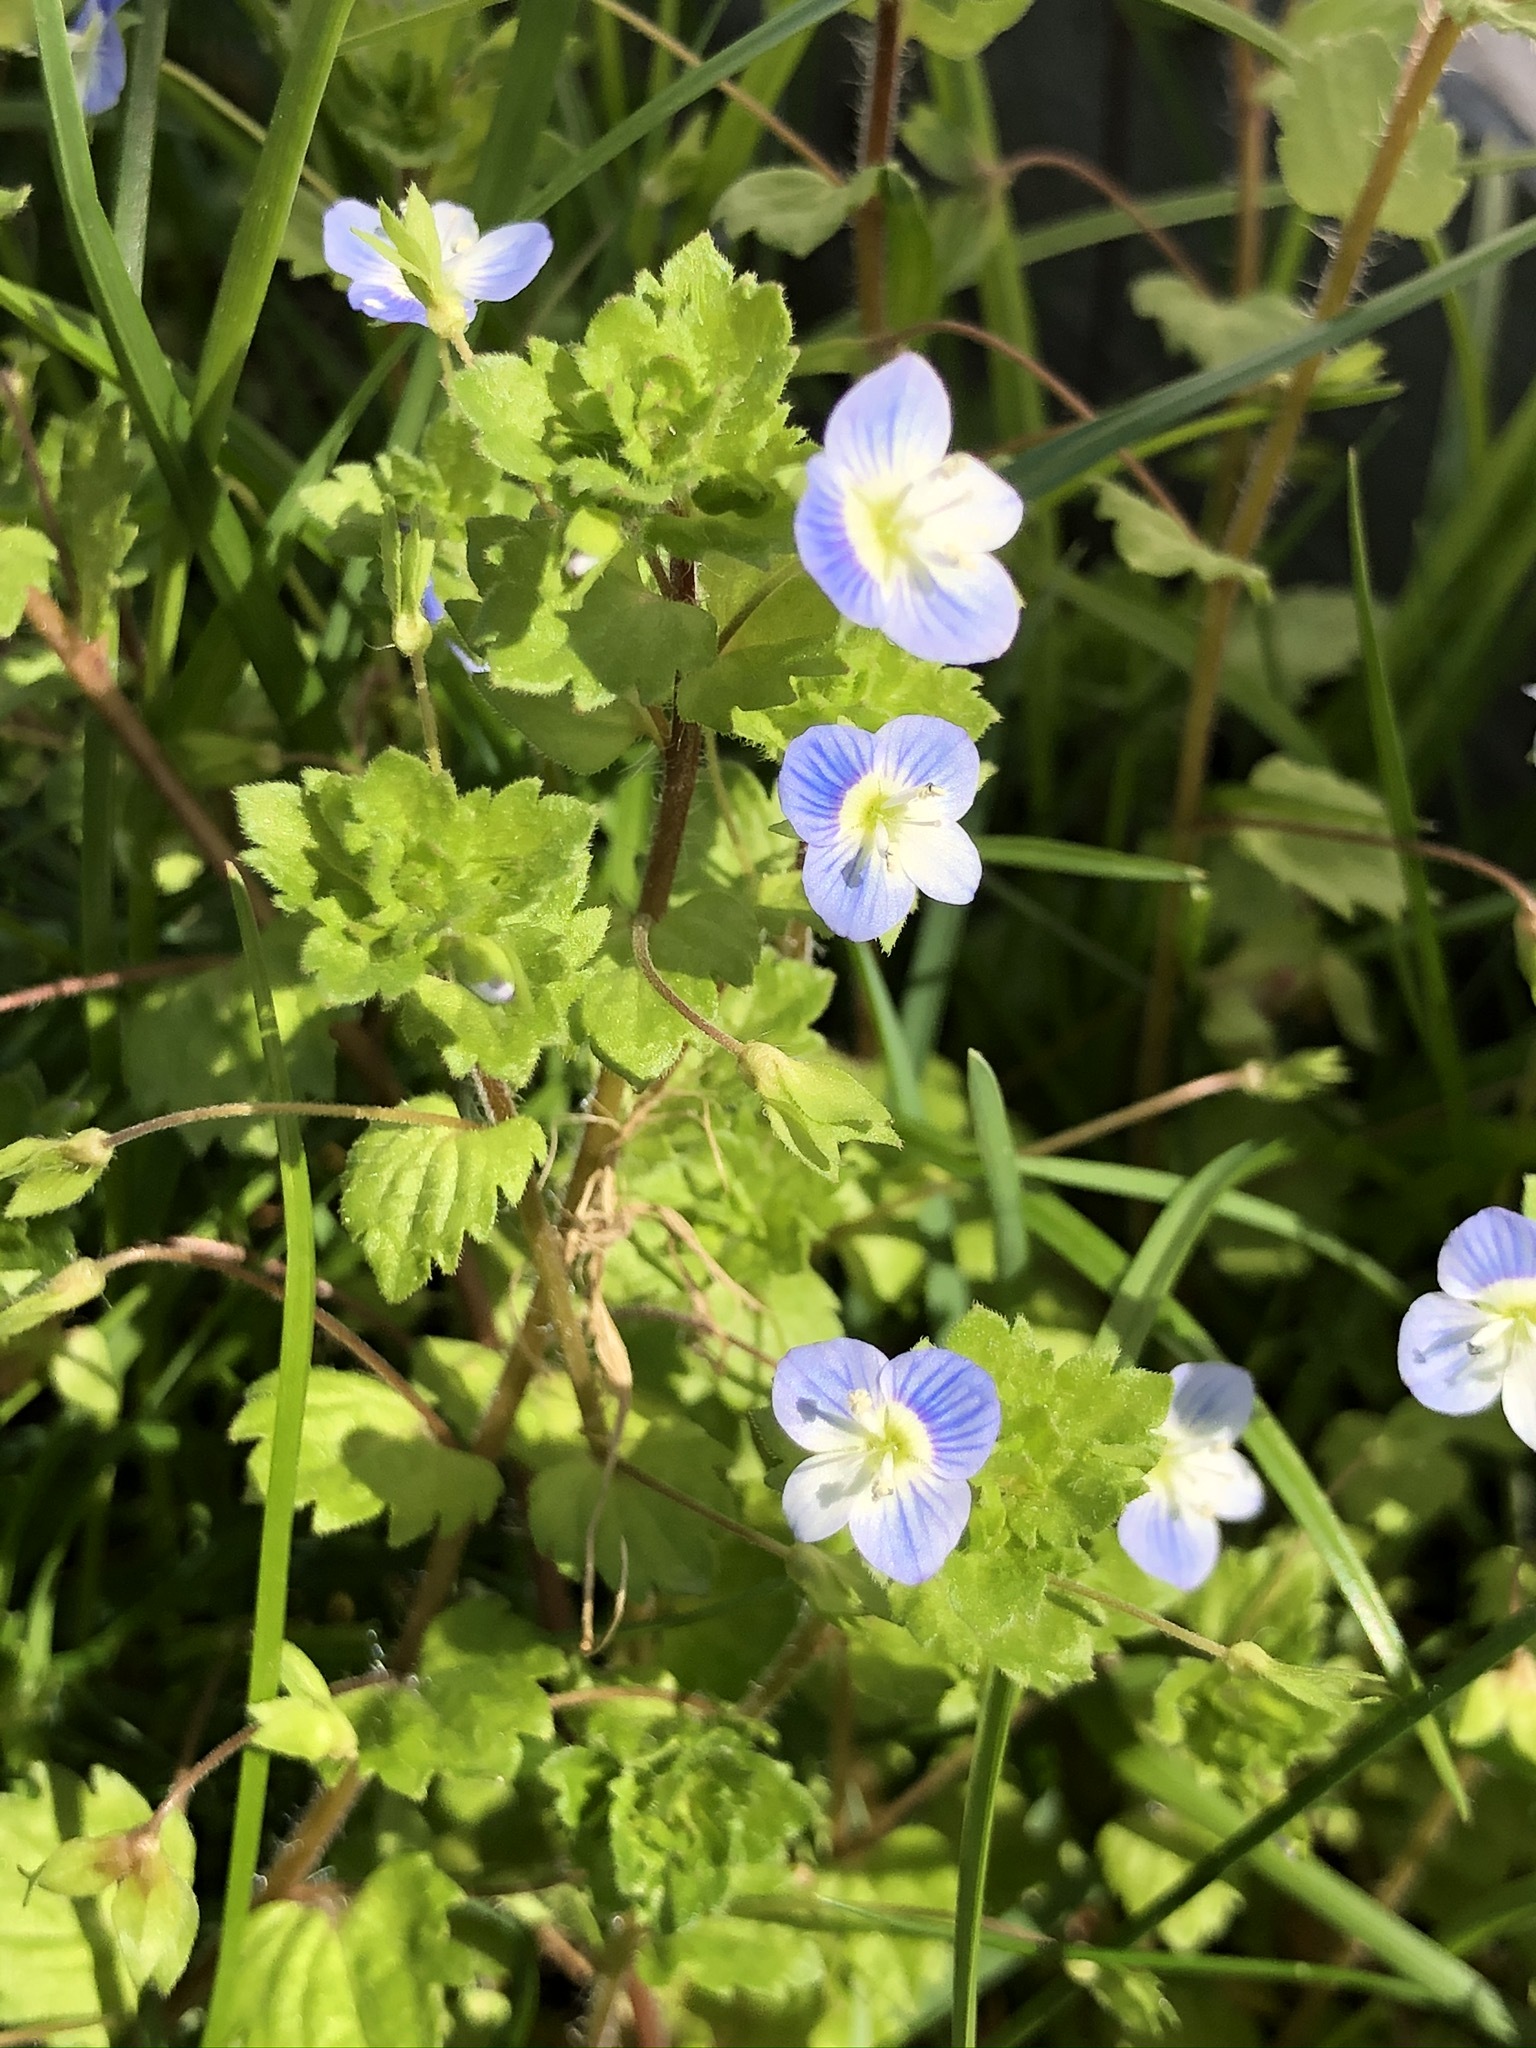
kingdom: Plantae
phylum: Tracheophyta
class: Magnoliopsida
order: Lamiales
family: Plantaginaceae
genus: Veronica
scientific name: Veronica persica
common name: Common field-speedwell
